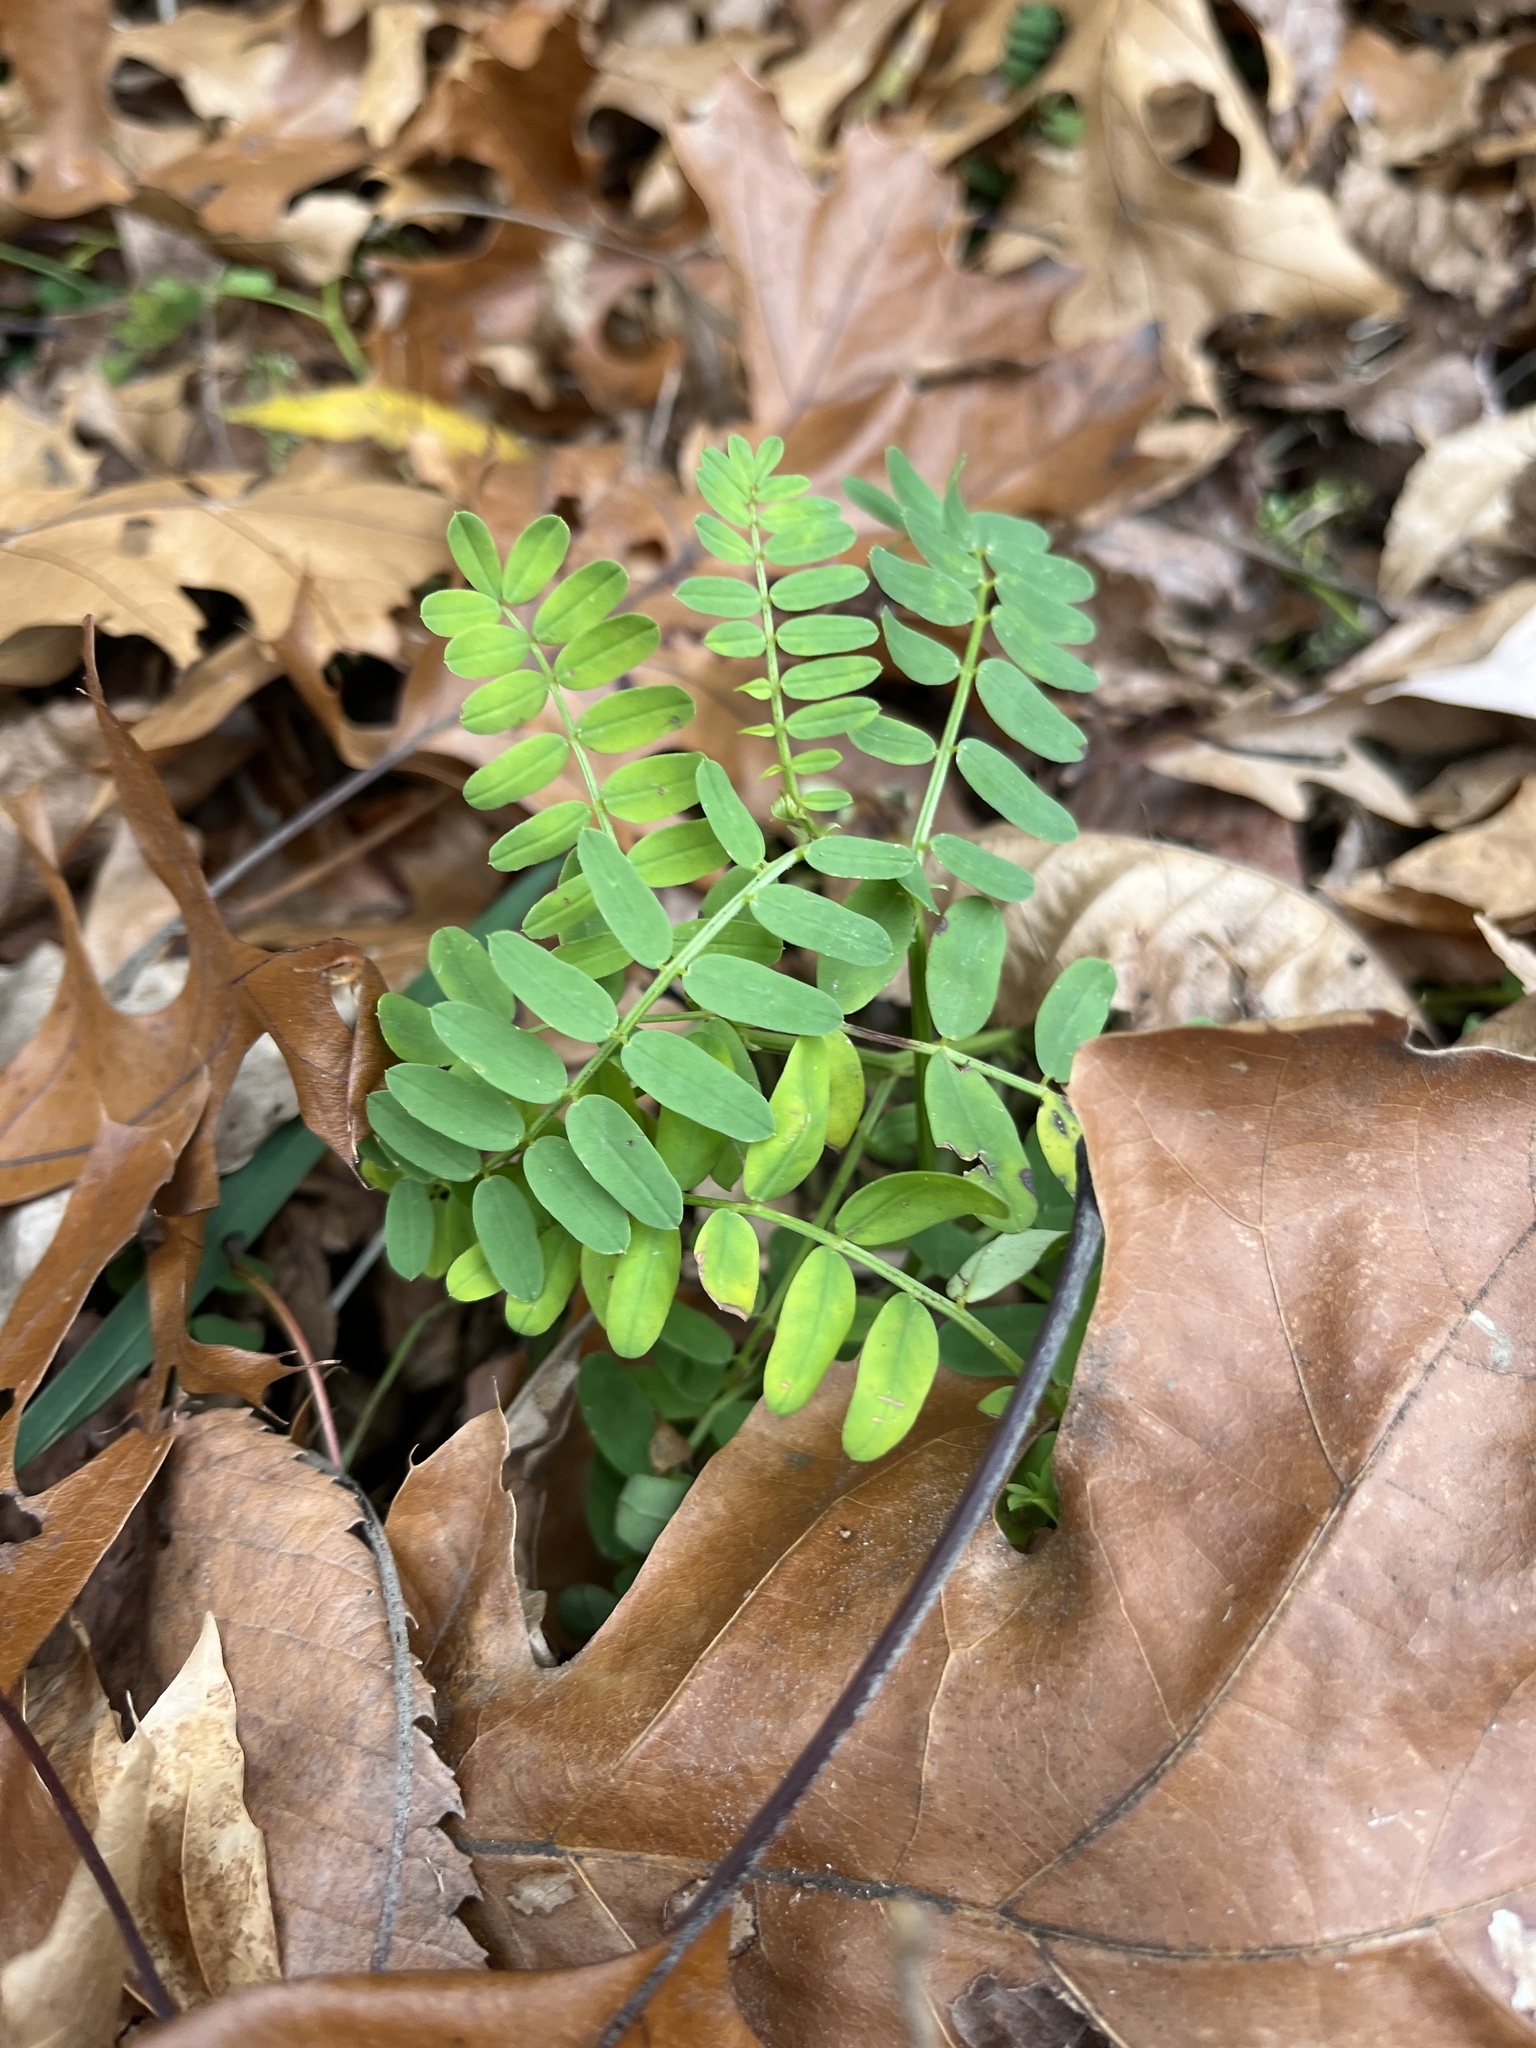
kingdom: Plantae
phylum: Tracheophyta
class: Magnoliopsida
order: Fabales
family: Fabaceae
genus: Coronilla
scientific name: Coronilla varia
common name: Crownvetch
